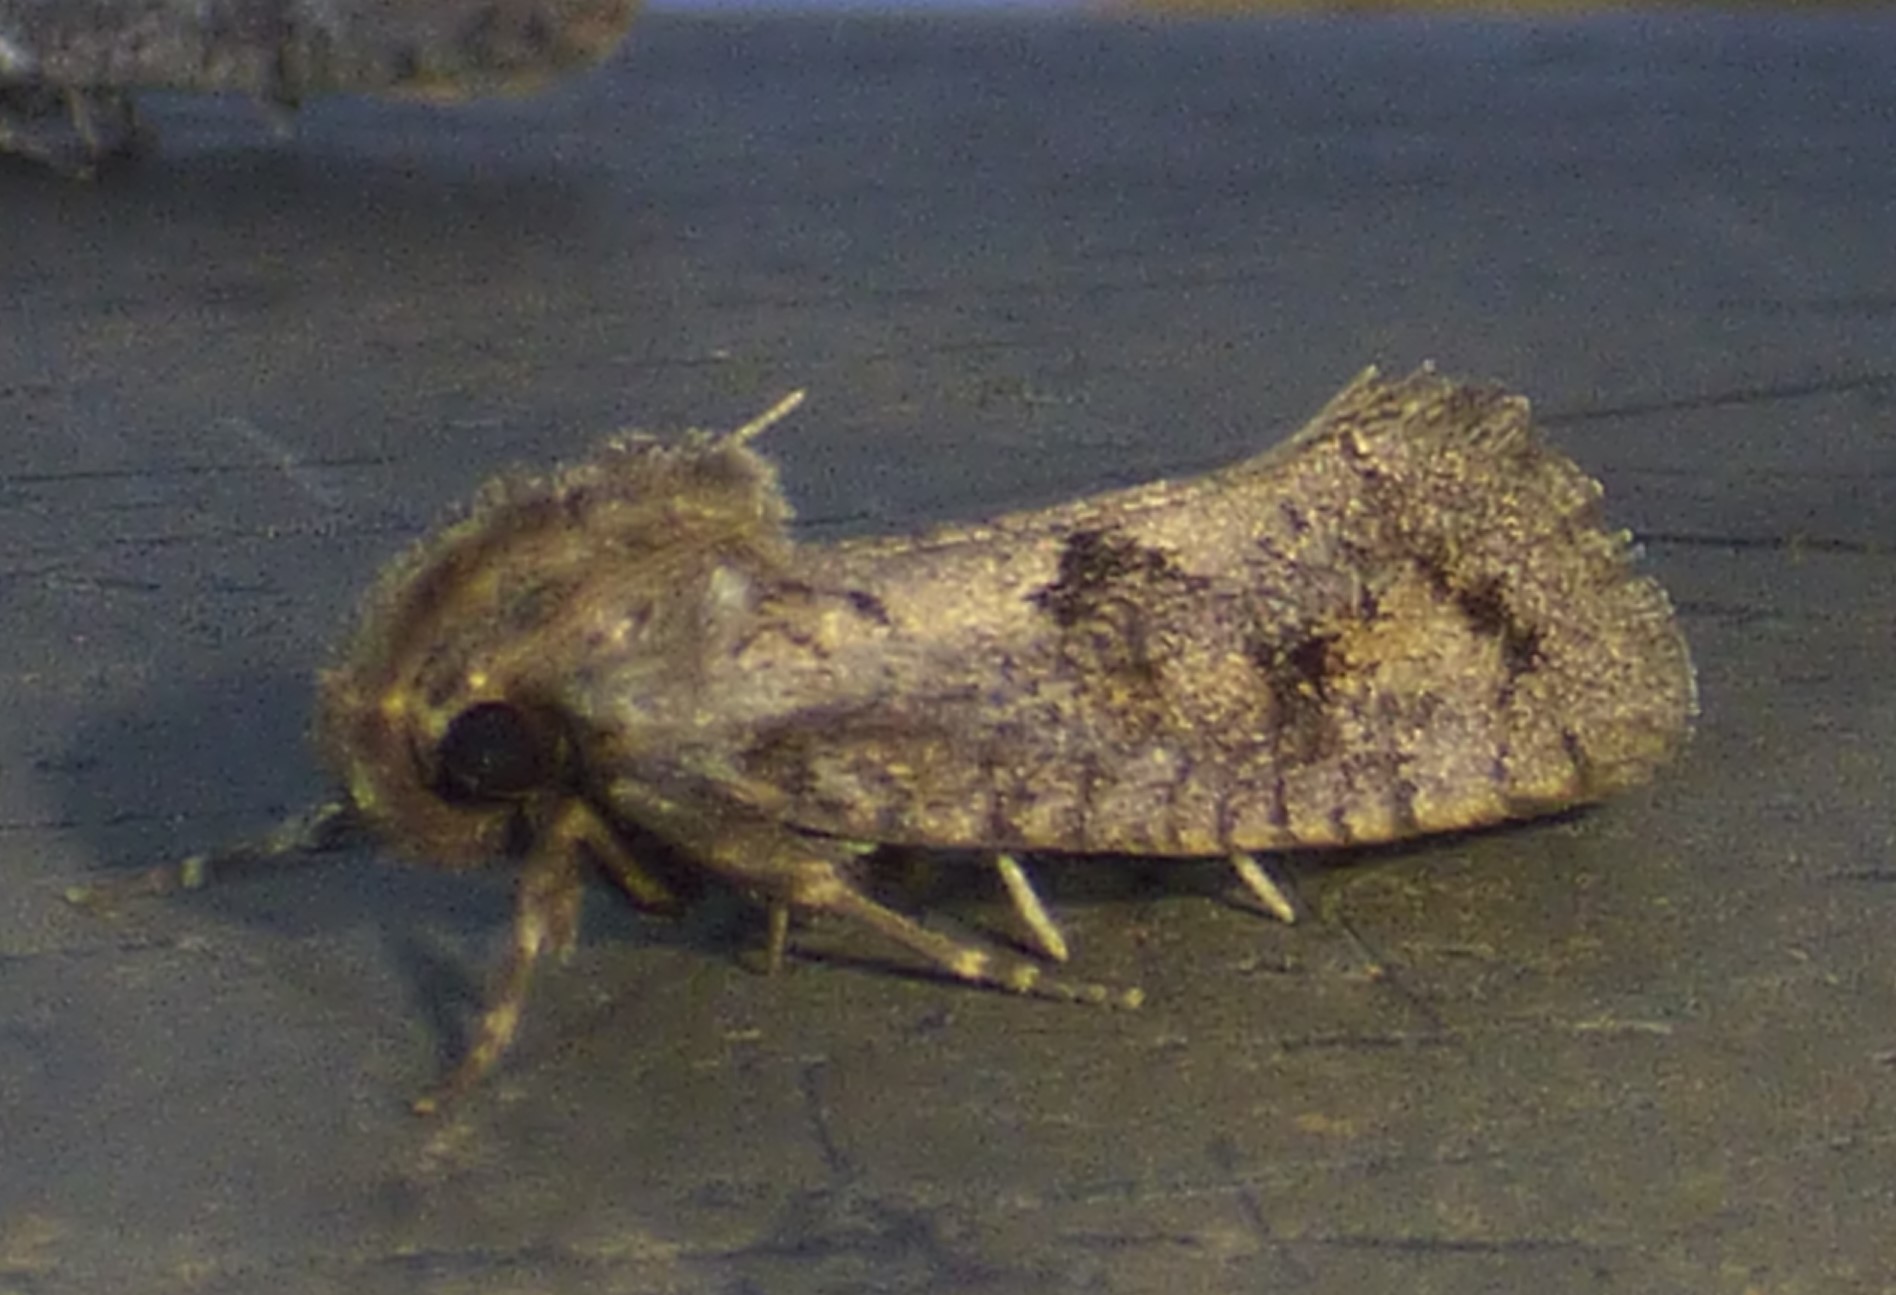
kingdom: Animalia
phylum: Arthropoda
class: Insecta
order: Lepidoptera
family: Tineidae
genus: Acrolophus
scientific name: Acrolophus popeanella
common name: Clemens' grass tubeworm moth
